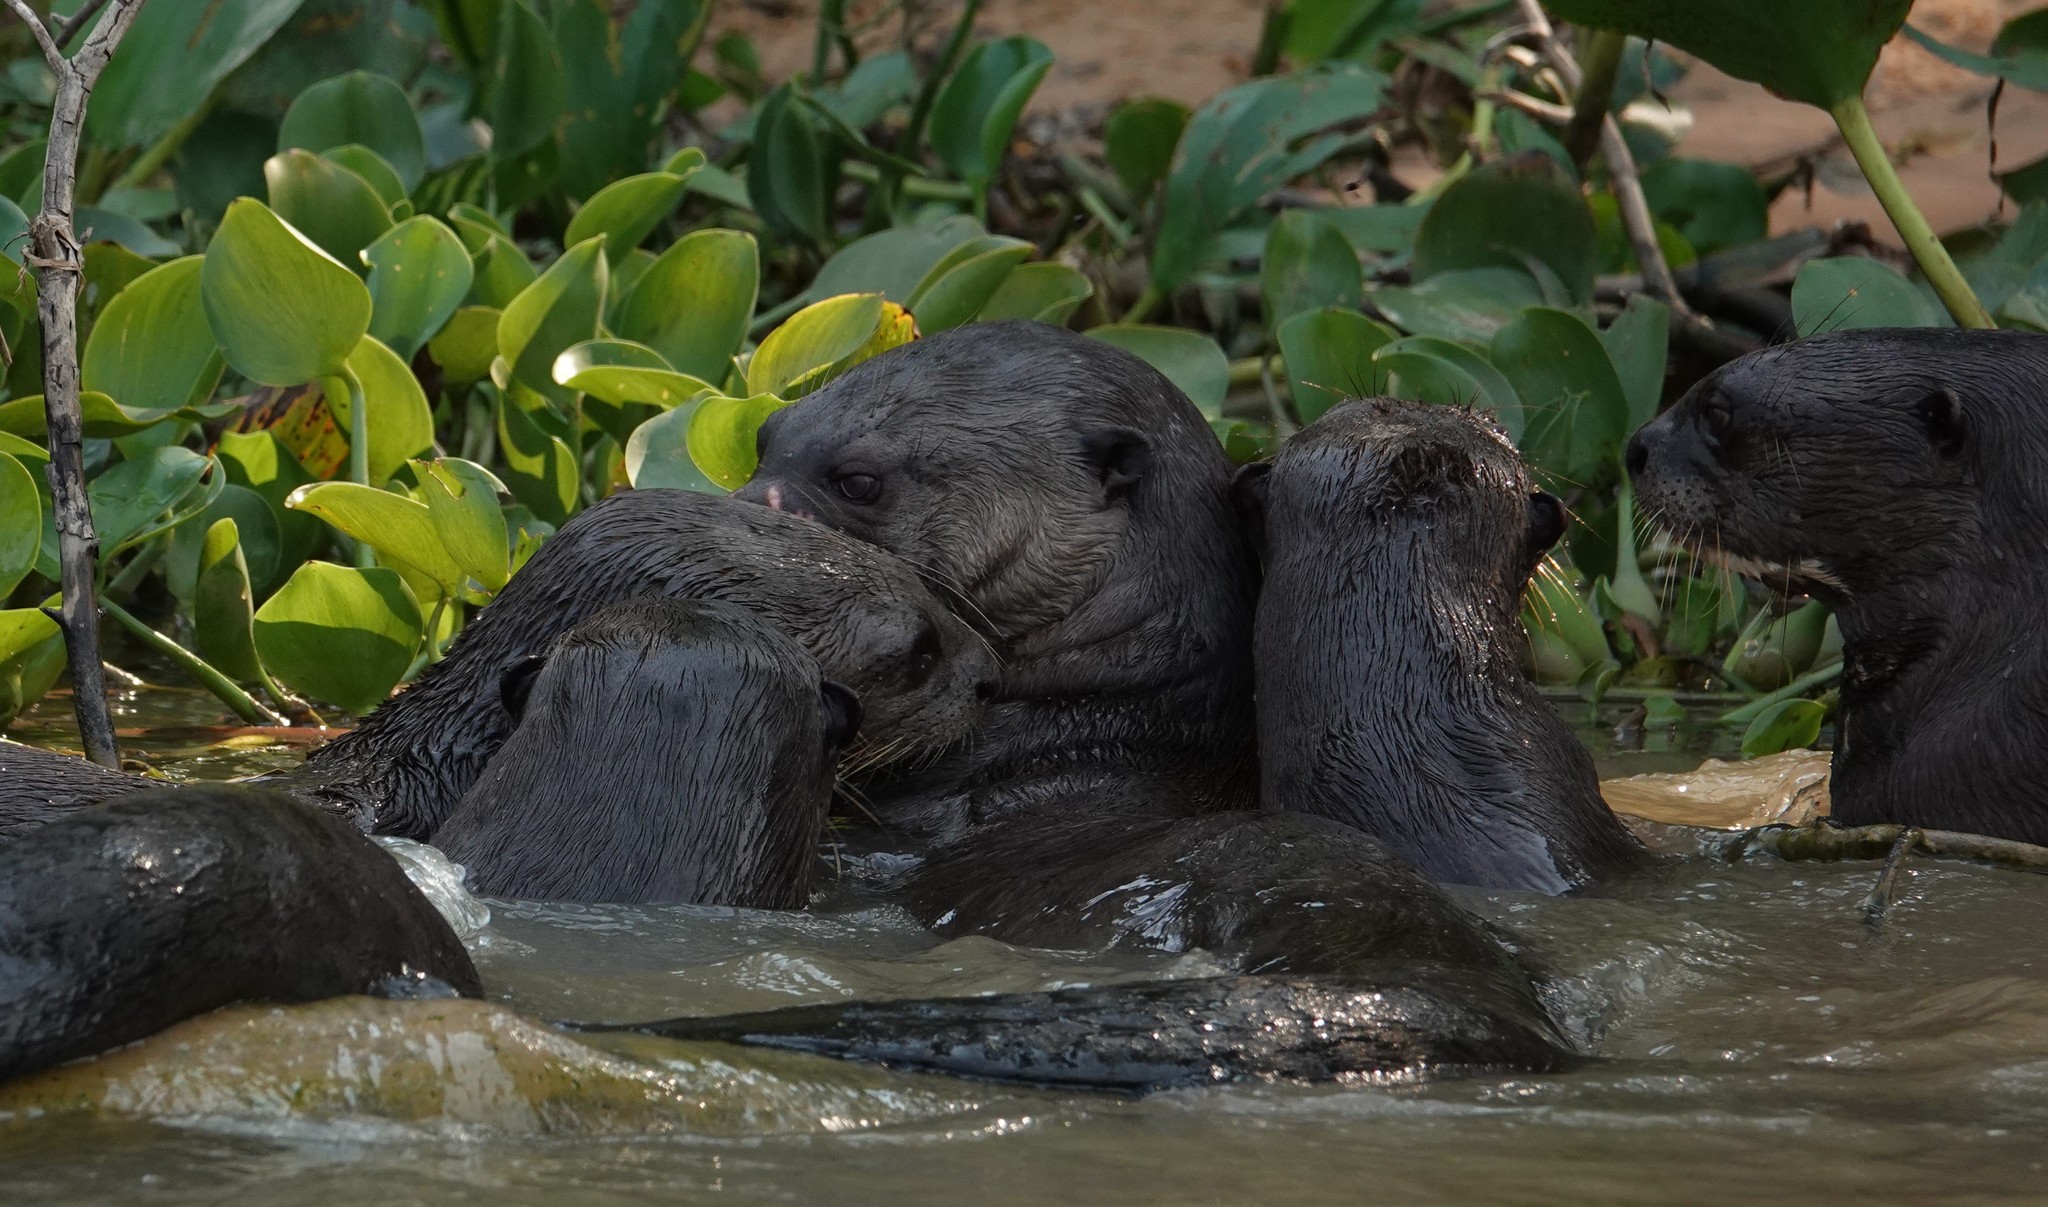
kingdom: Animalia
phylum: Chordata
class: Mammalia
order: Carnivora
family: Mustelidae
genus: Pteronura
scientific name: Pteronura brasiliensis
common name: Giant otter
